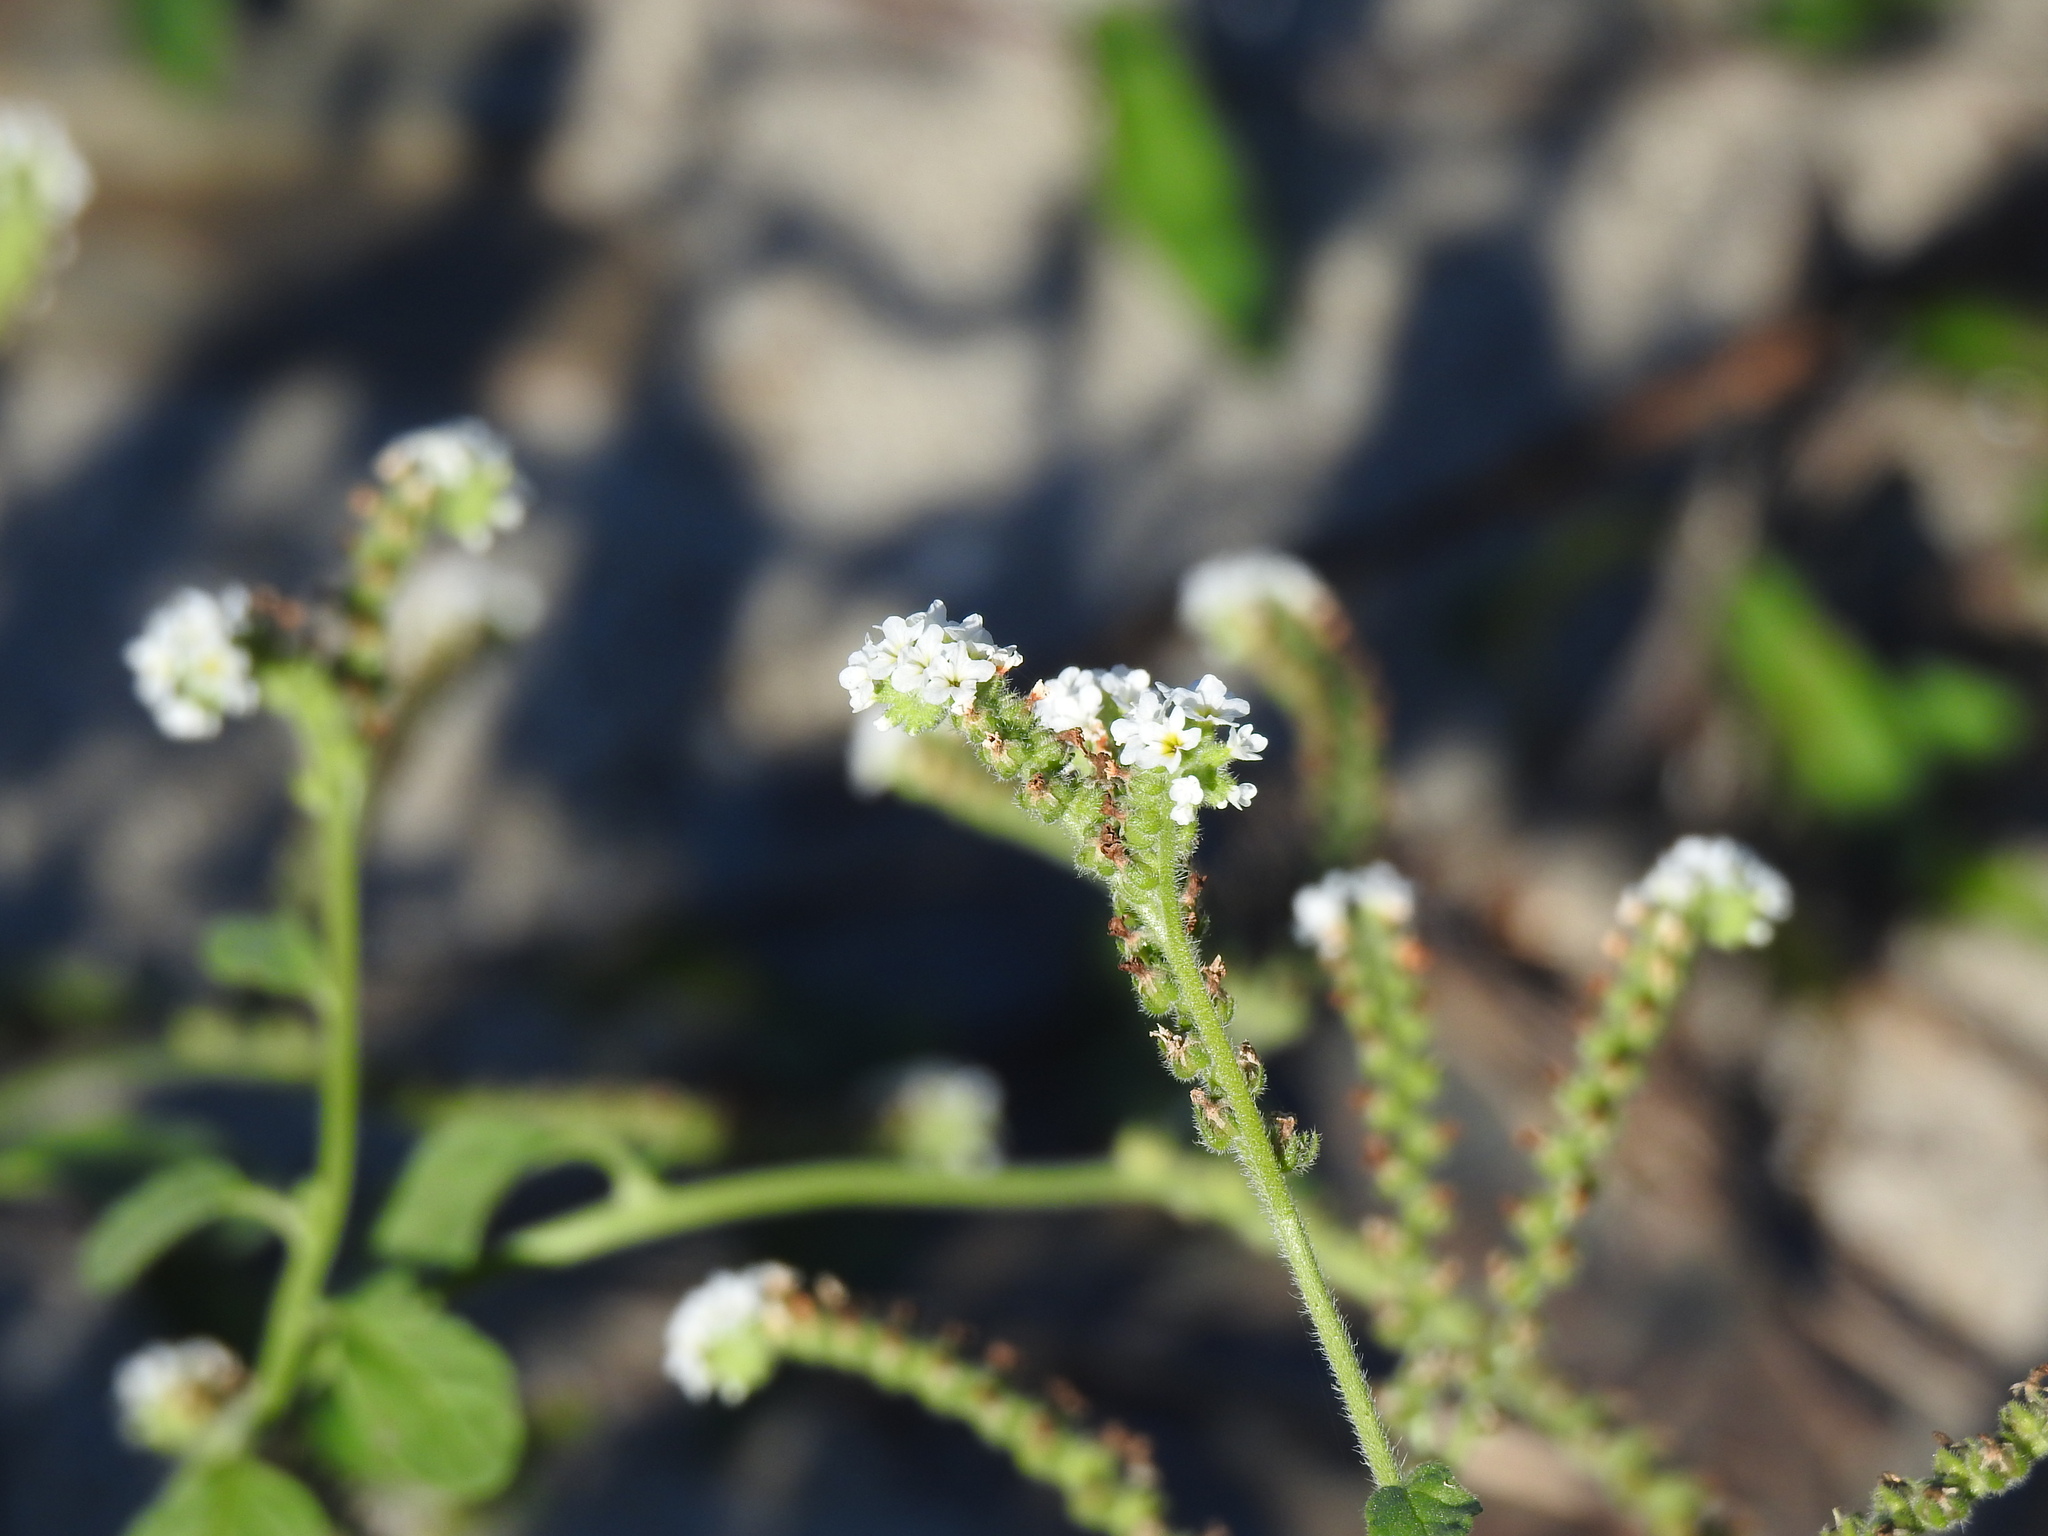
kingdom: Plantae
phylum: Tracheophyta
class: Magnoliopsida
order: Boraginales
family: Heliotropiaceae
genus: Heliotropium
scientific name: Heliotropium europaeum
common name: European heliotrope
